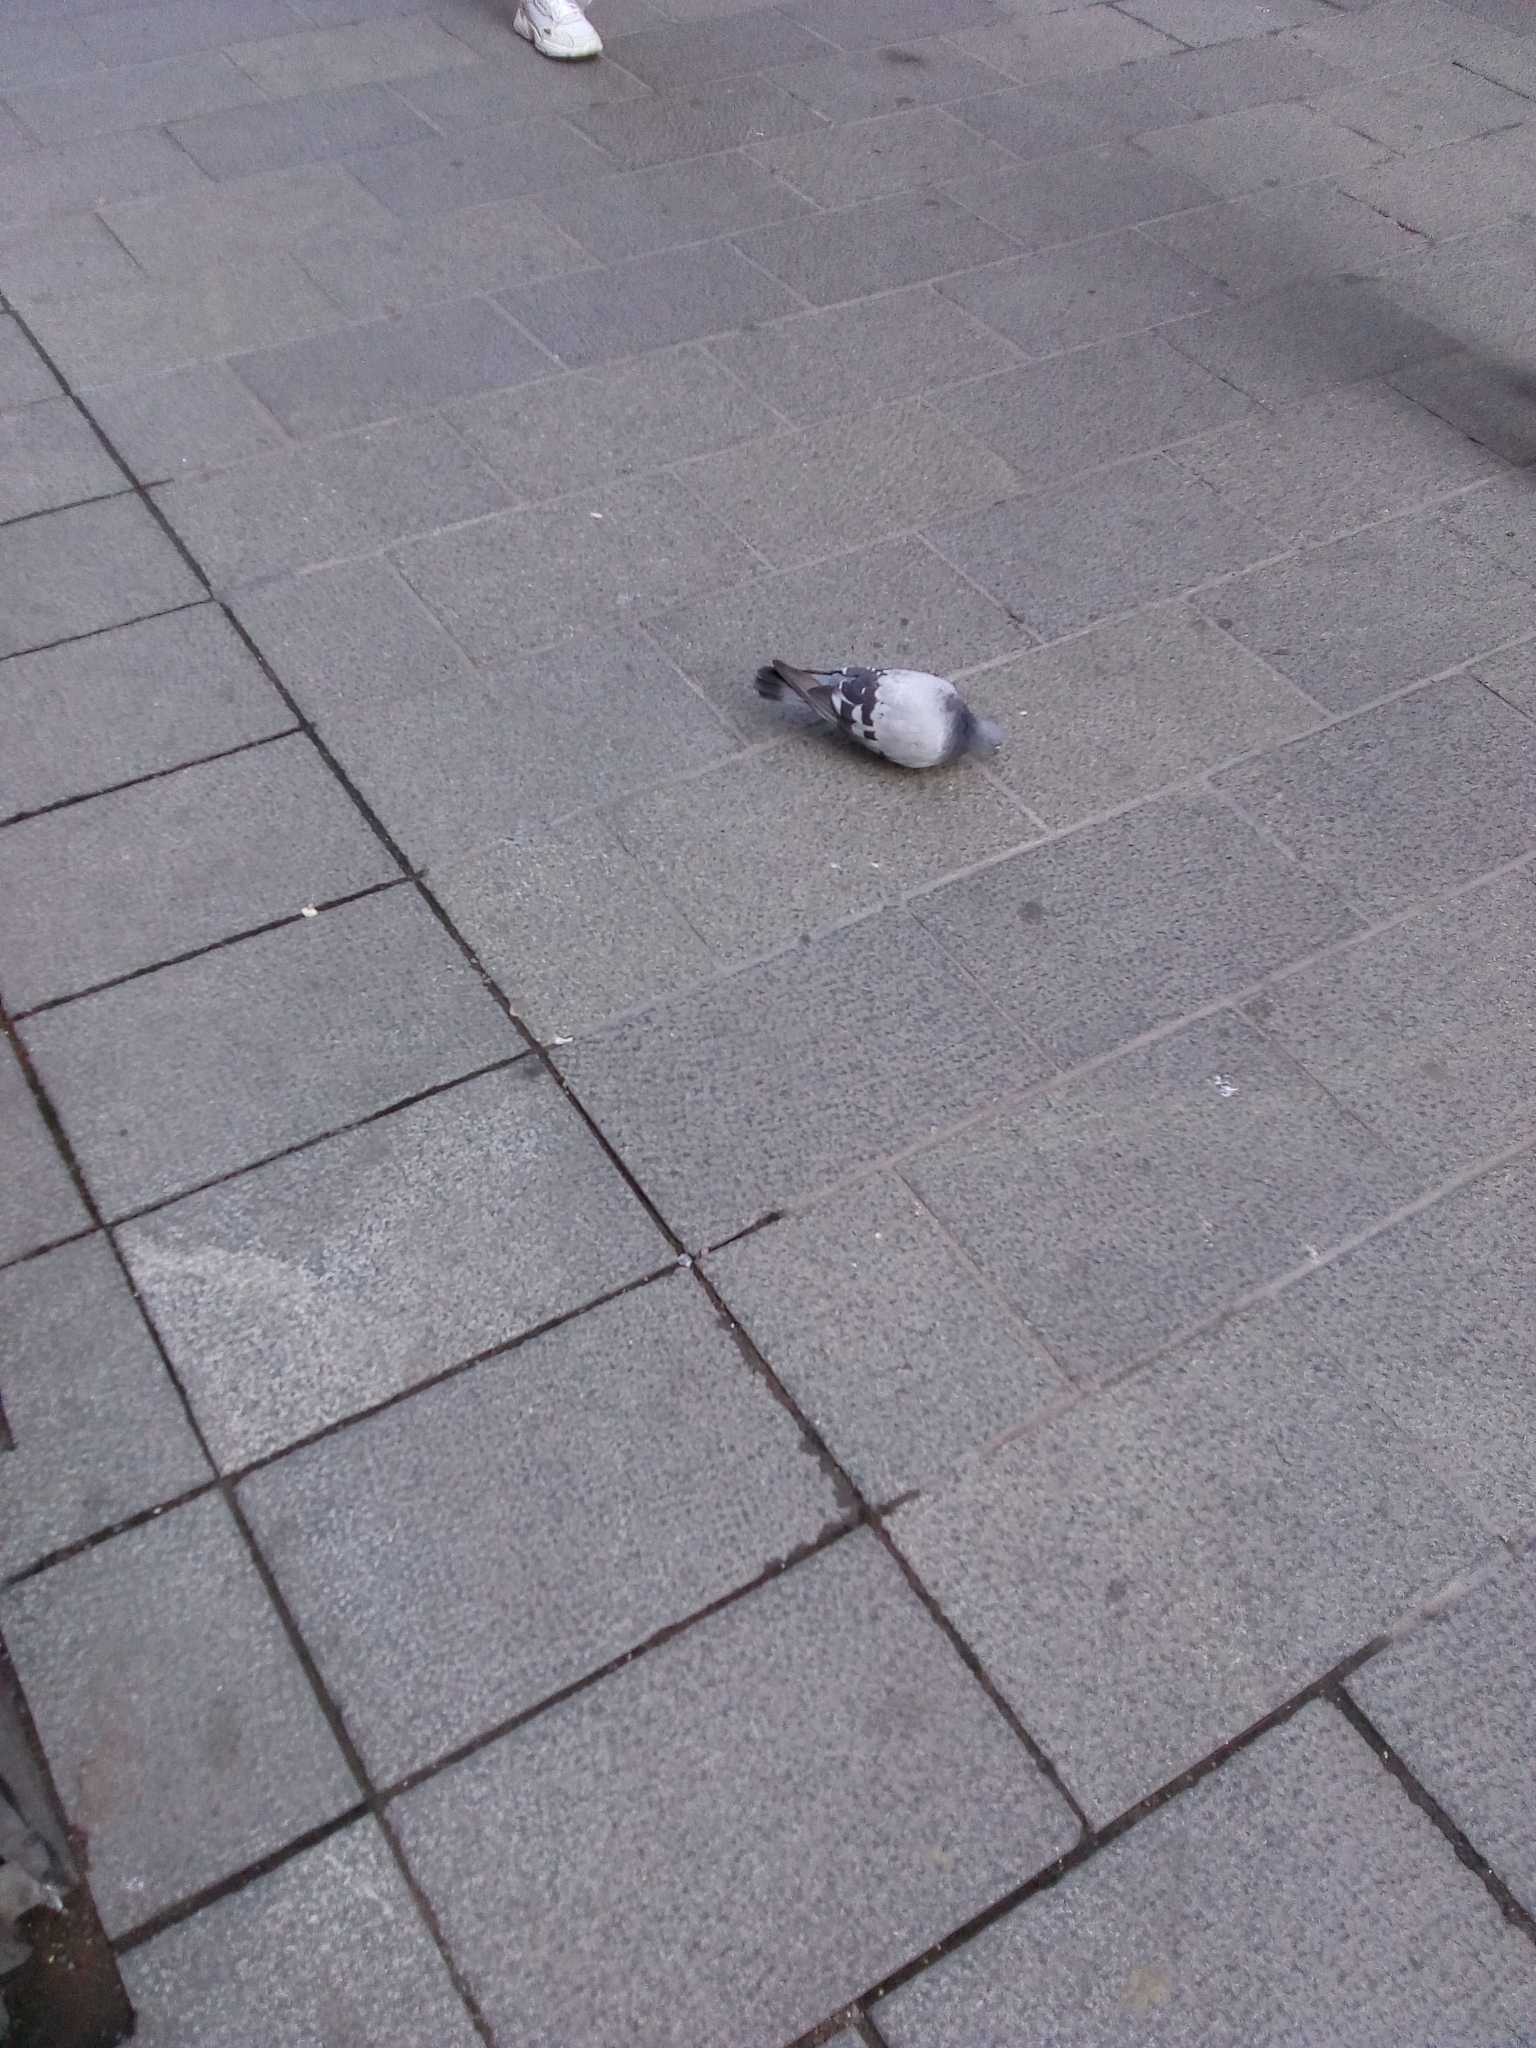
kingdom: Animalia
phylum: Chordata
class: Aves
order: Columbiformes
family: Columbidae
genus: Columba
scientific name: Columba livia
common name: Rock pigeon
